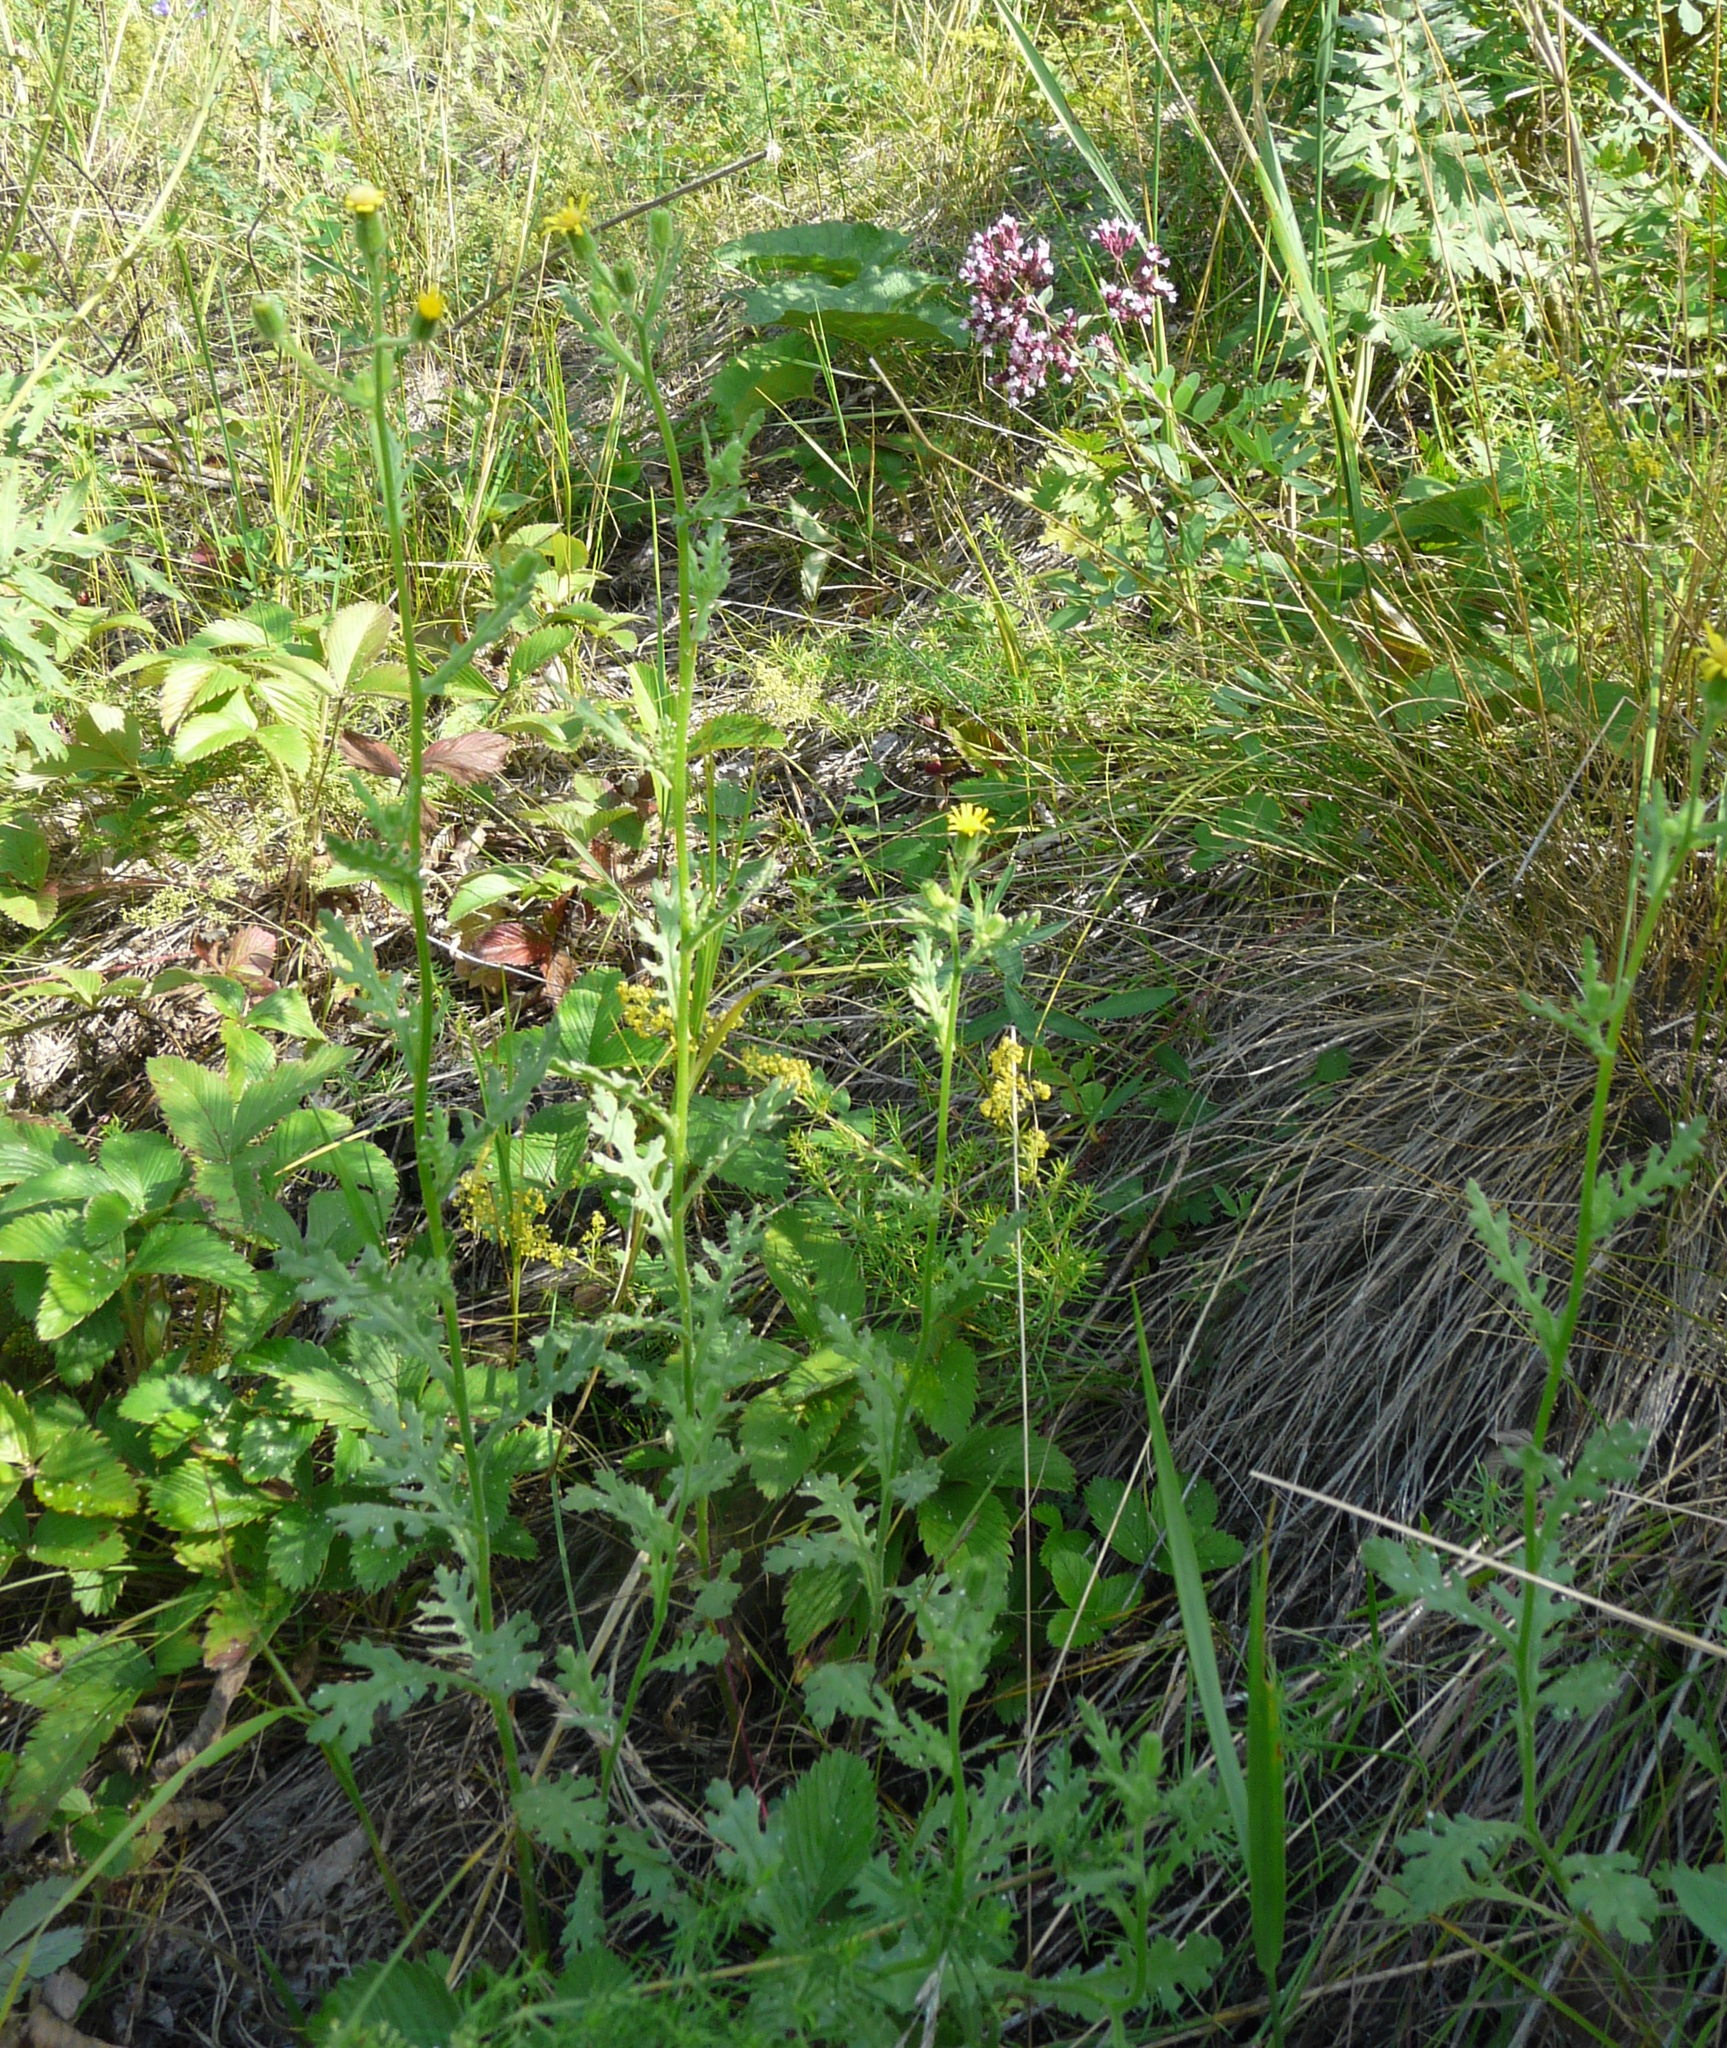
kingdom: Plantae
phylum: Tracheophyta
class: Magnoliopsida
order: Asterales
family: Asteraceae
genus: Senecio
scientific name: Senecio viscosus
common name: Sticky groundsel
